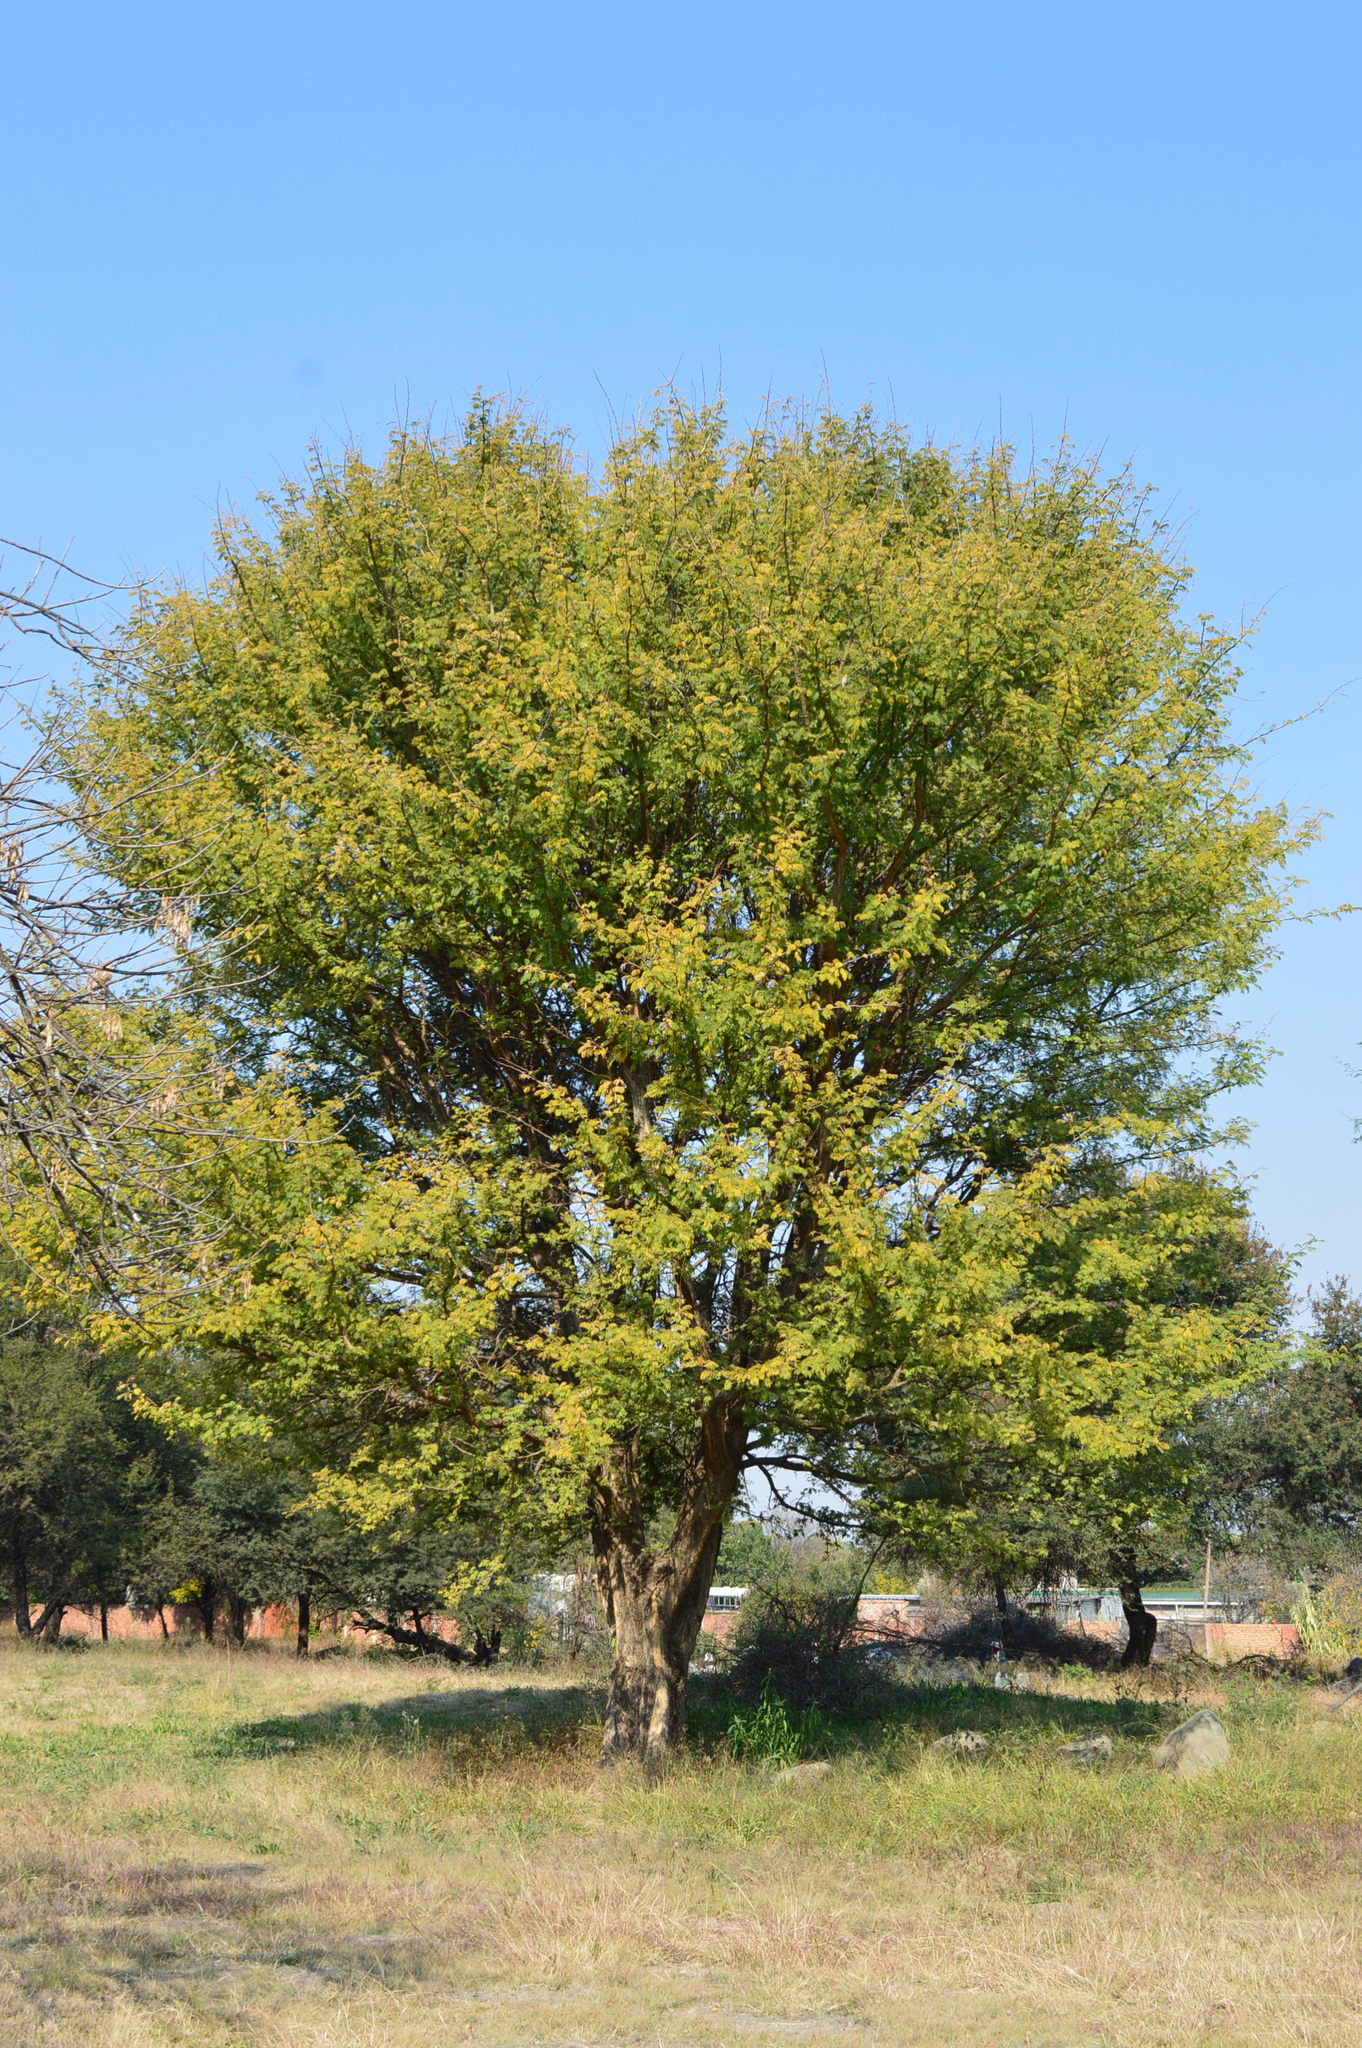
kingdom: Plantae
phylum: Tracheophyta
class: Magnoliopsida
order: Fabales
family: Fabaceae
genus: Senegalia
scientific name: Senegalia galpinii
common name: Monkey-thorn
